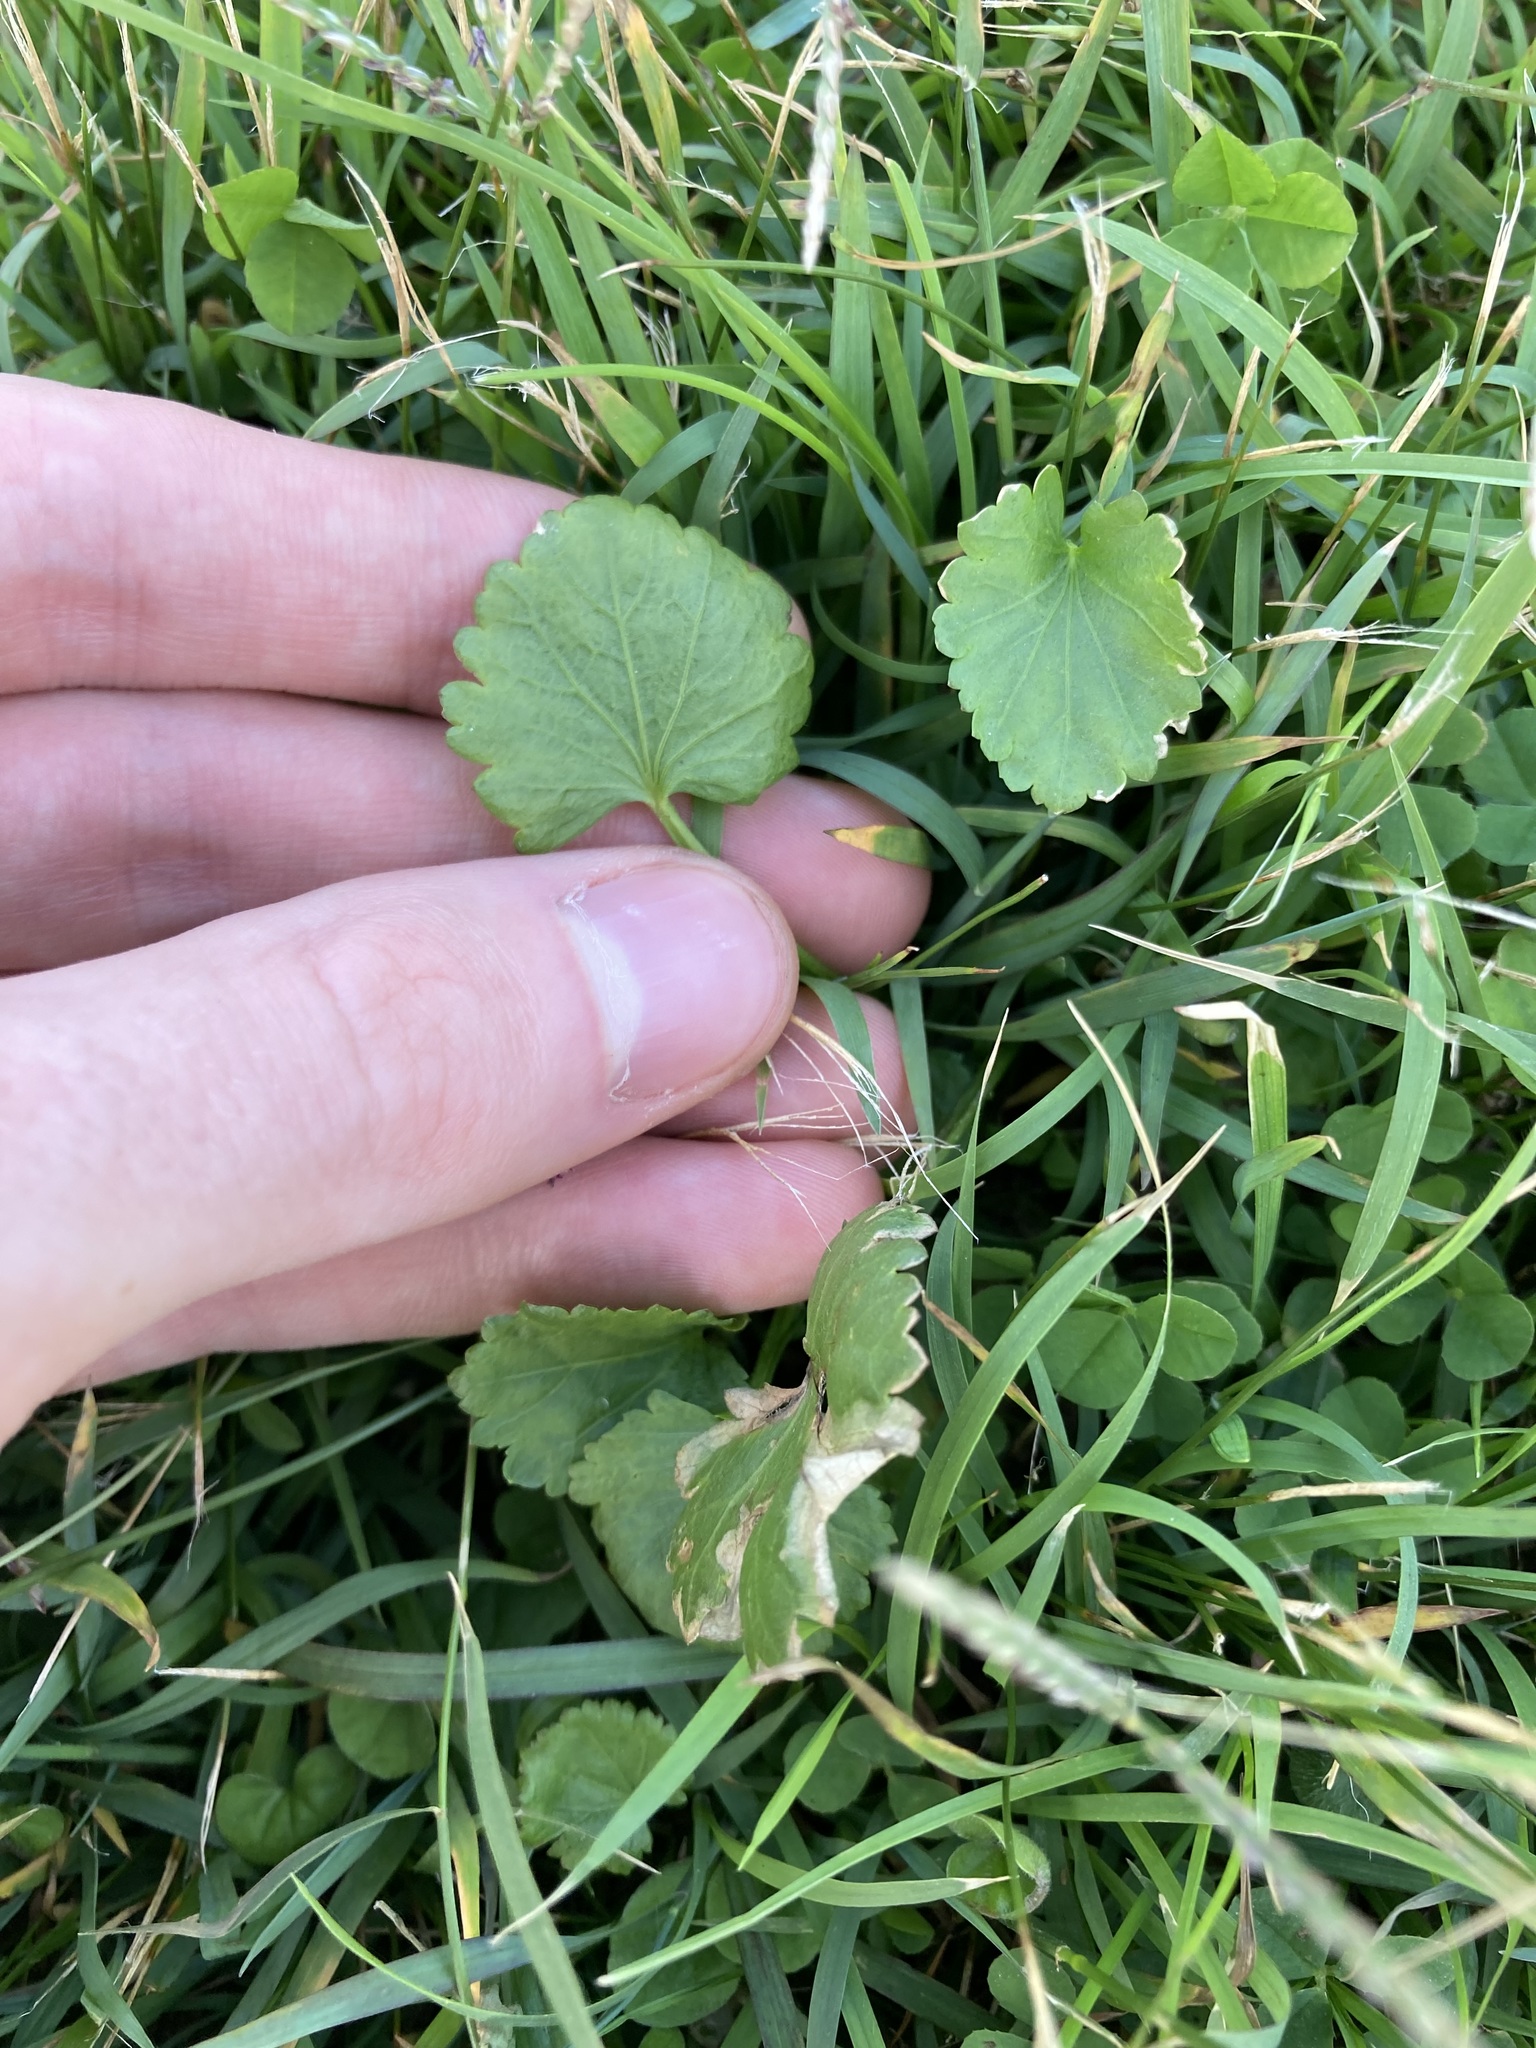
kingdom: Plantae
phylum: Tracheophyta
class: Magnoliopsida
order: Malvales
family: Malvaceae
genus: Modiola
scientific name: Modiola caroliniana
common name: Carolina bristlemallow
